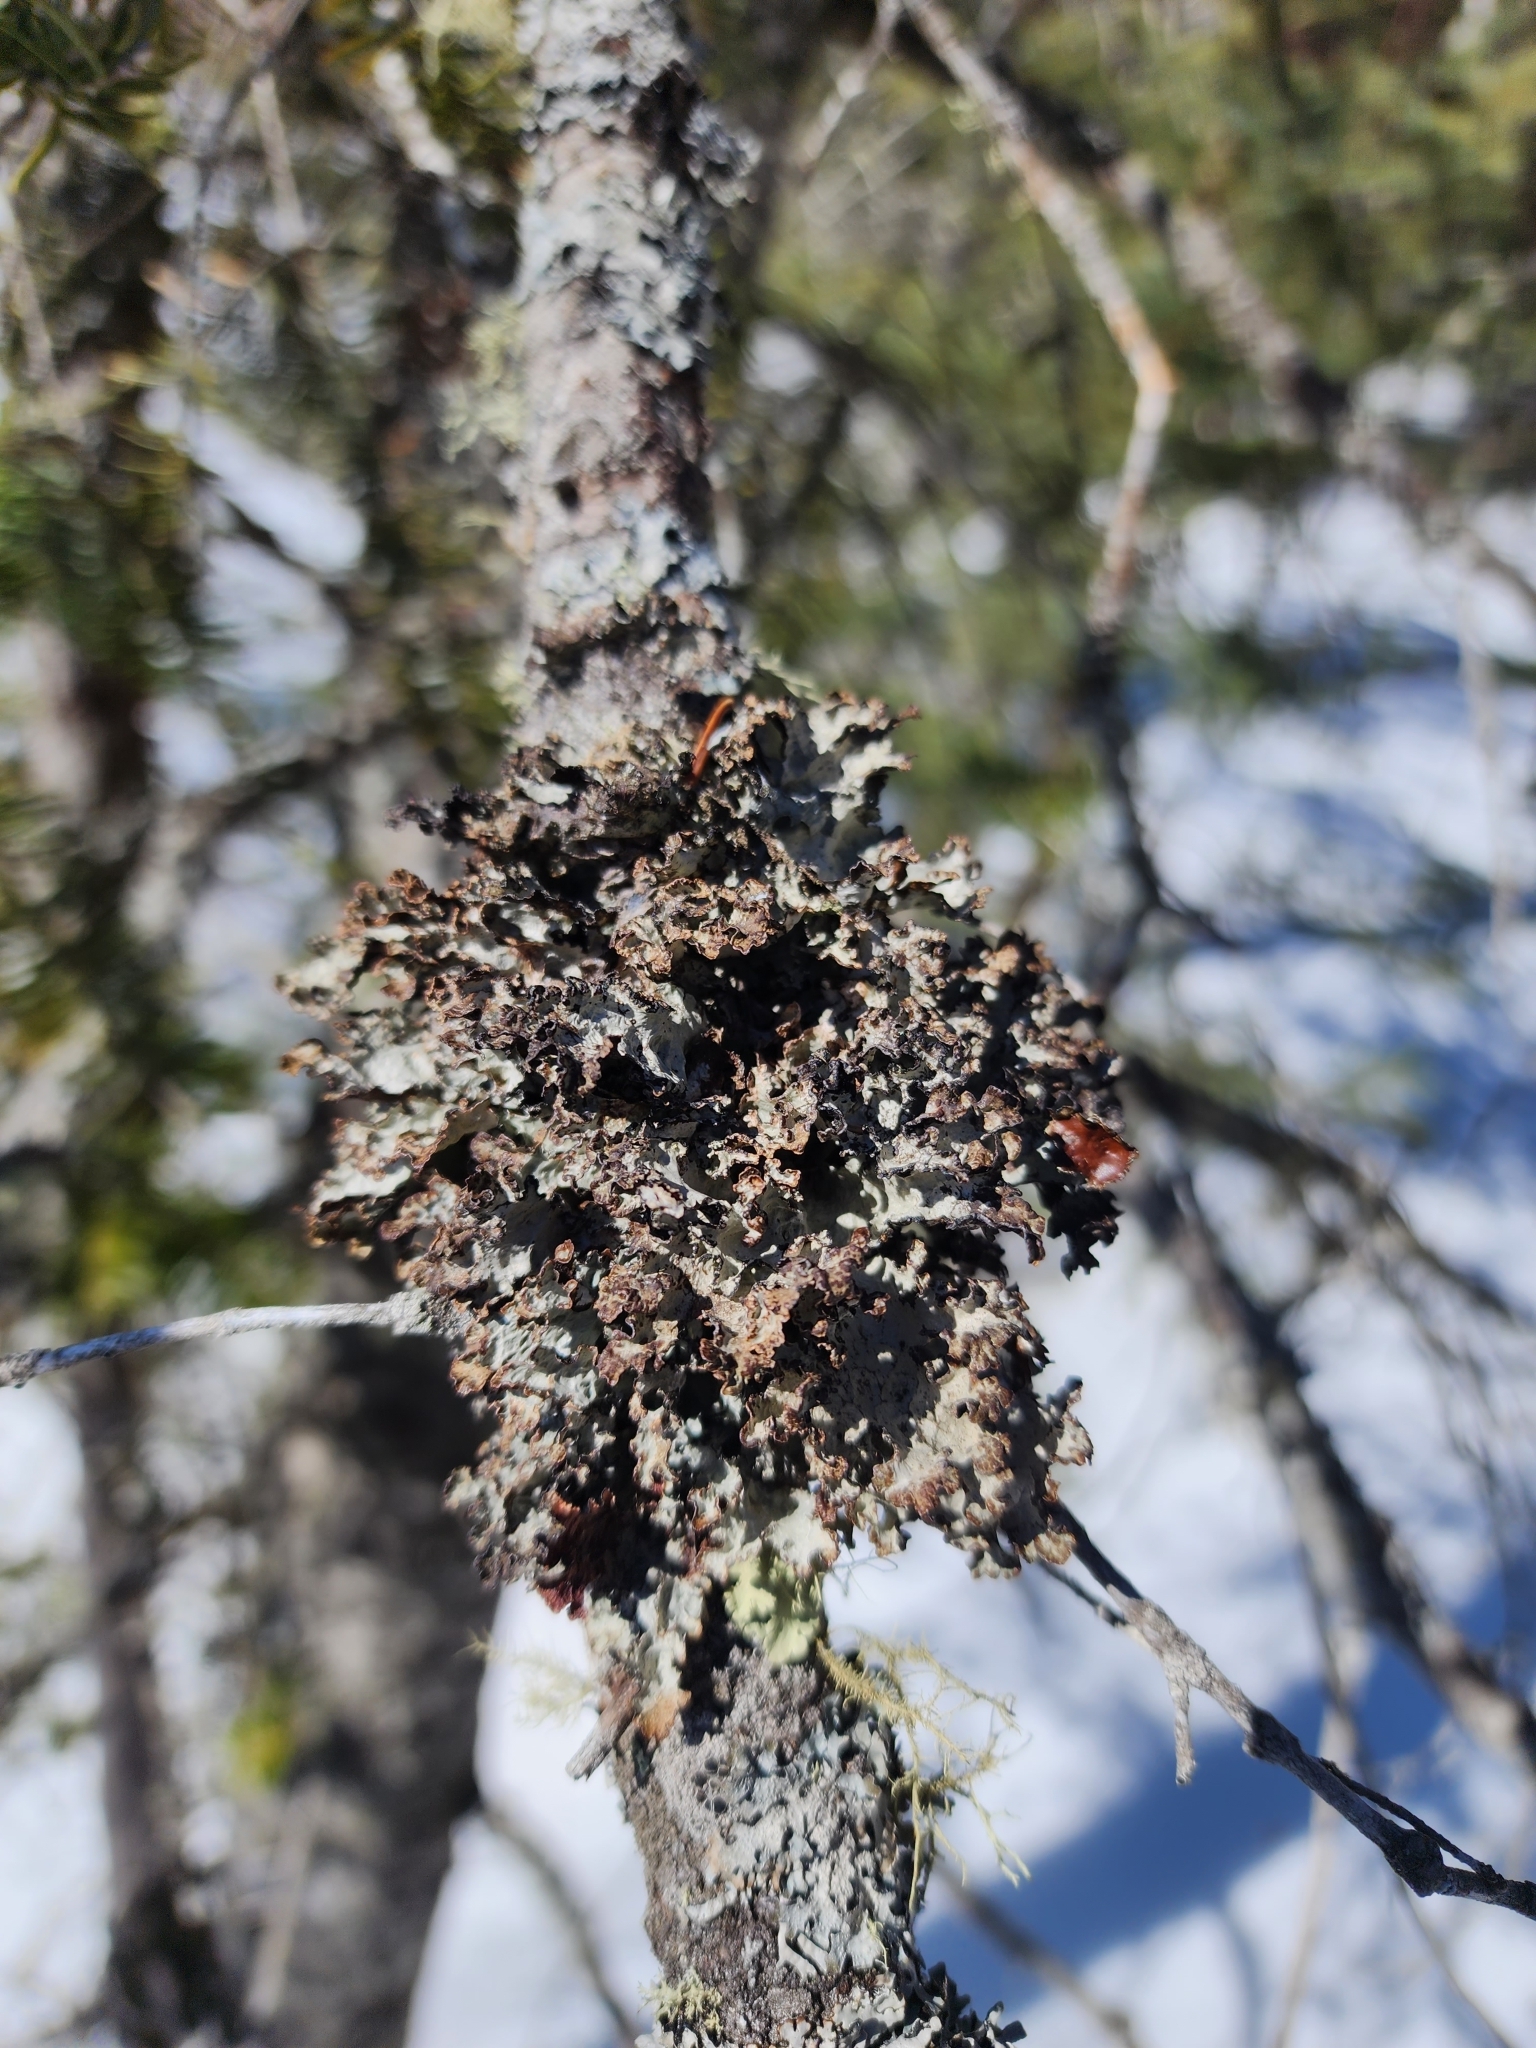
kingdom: Fungi
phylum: Ascomycota
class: Lecanoromycetes
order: Lecanorales
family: Parmeliaceae
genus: Platismatia
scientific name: Platismatia tuckermanii
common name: Crumpled rag lichen
